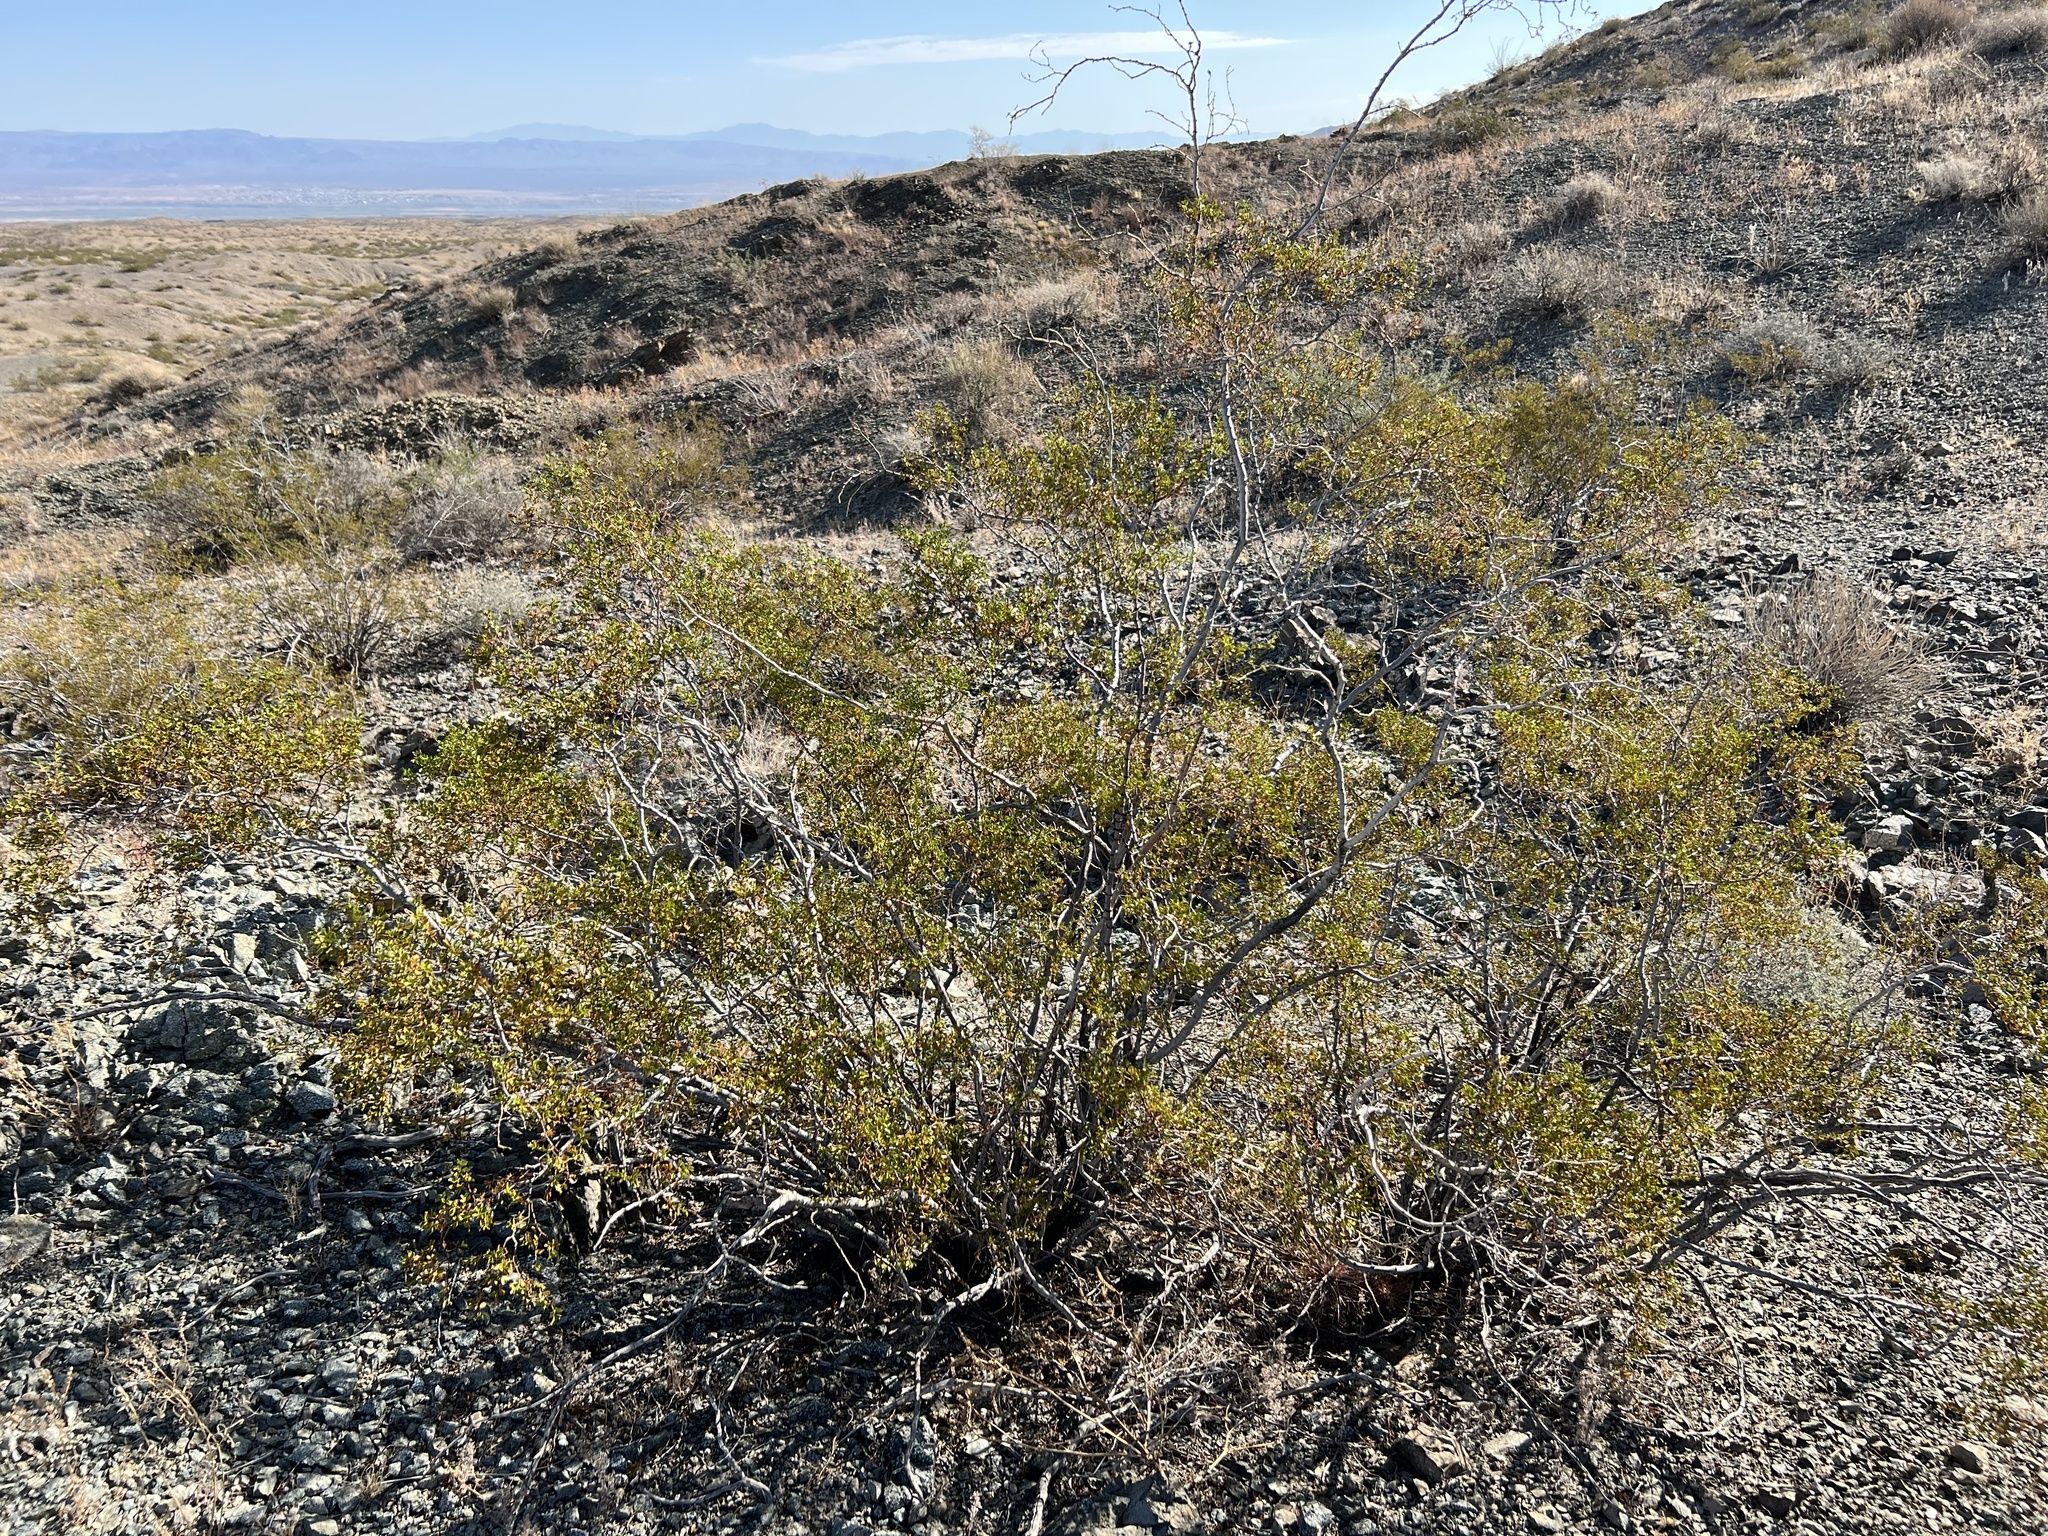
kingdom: Plantae
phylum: Tracheophyta
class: Magnoliopsida
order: Zygophyllales
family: Zygophyllaceae
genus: Larrea
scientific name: Larrea tridentata
